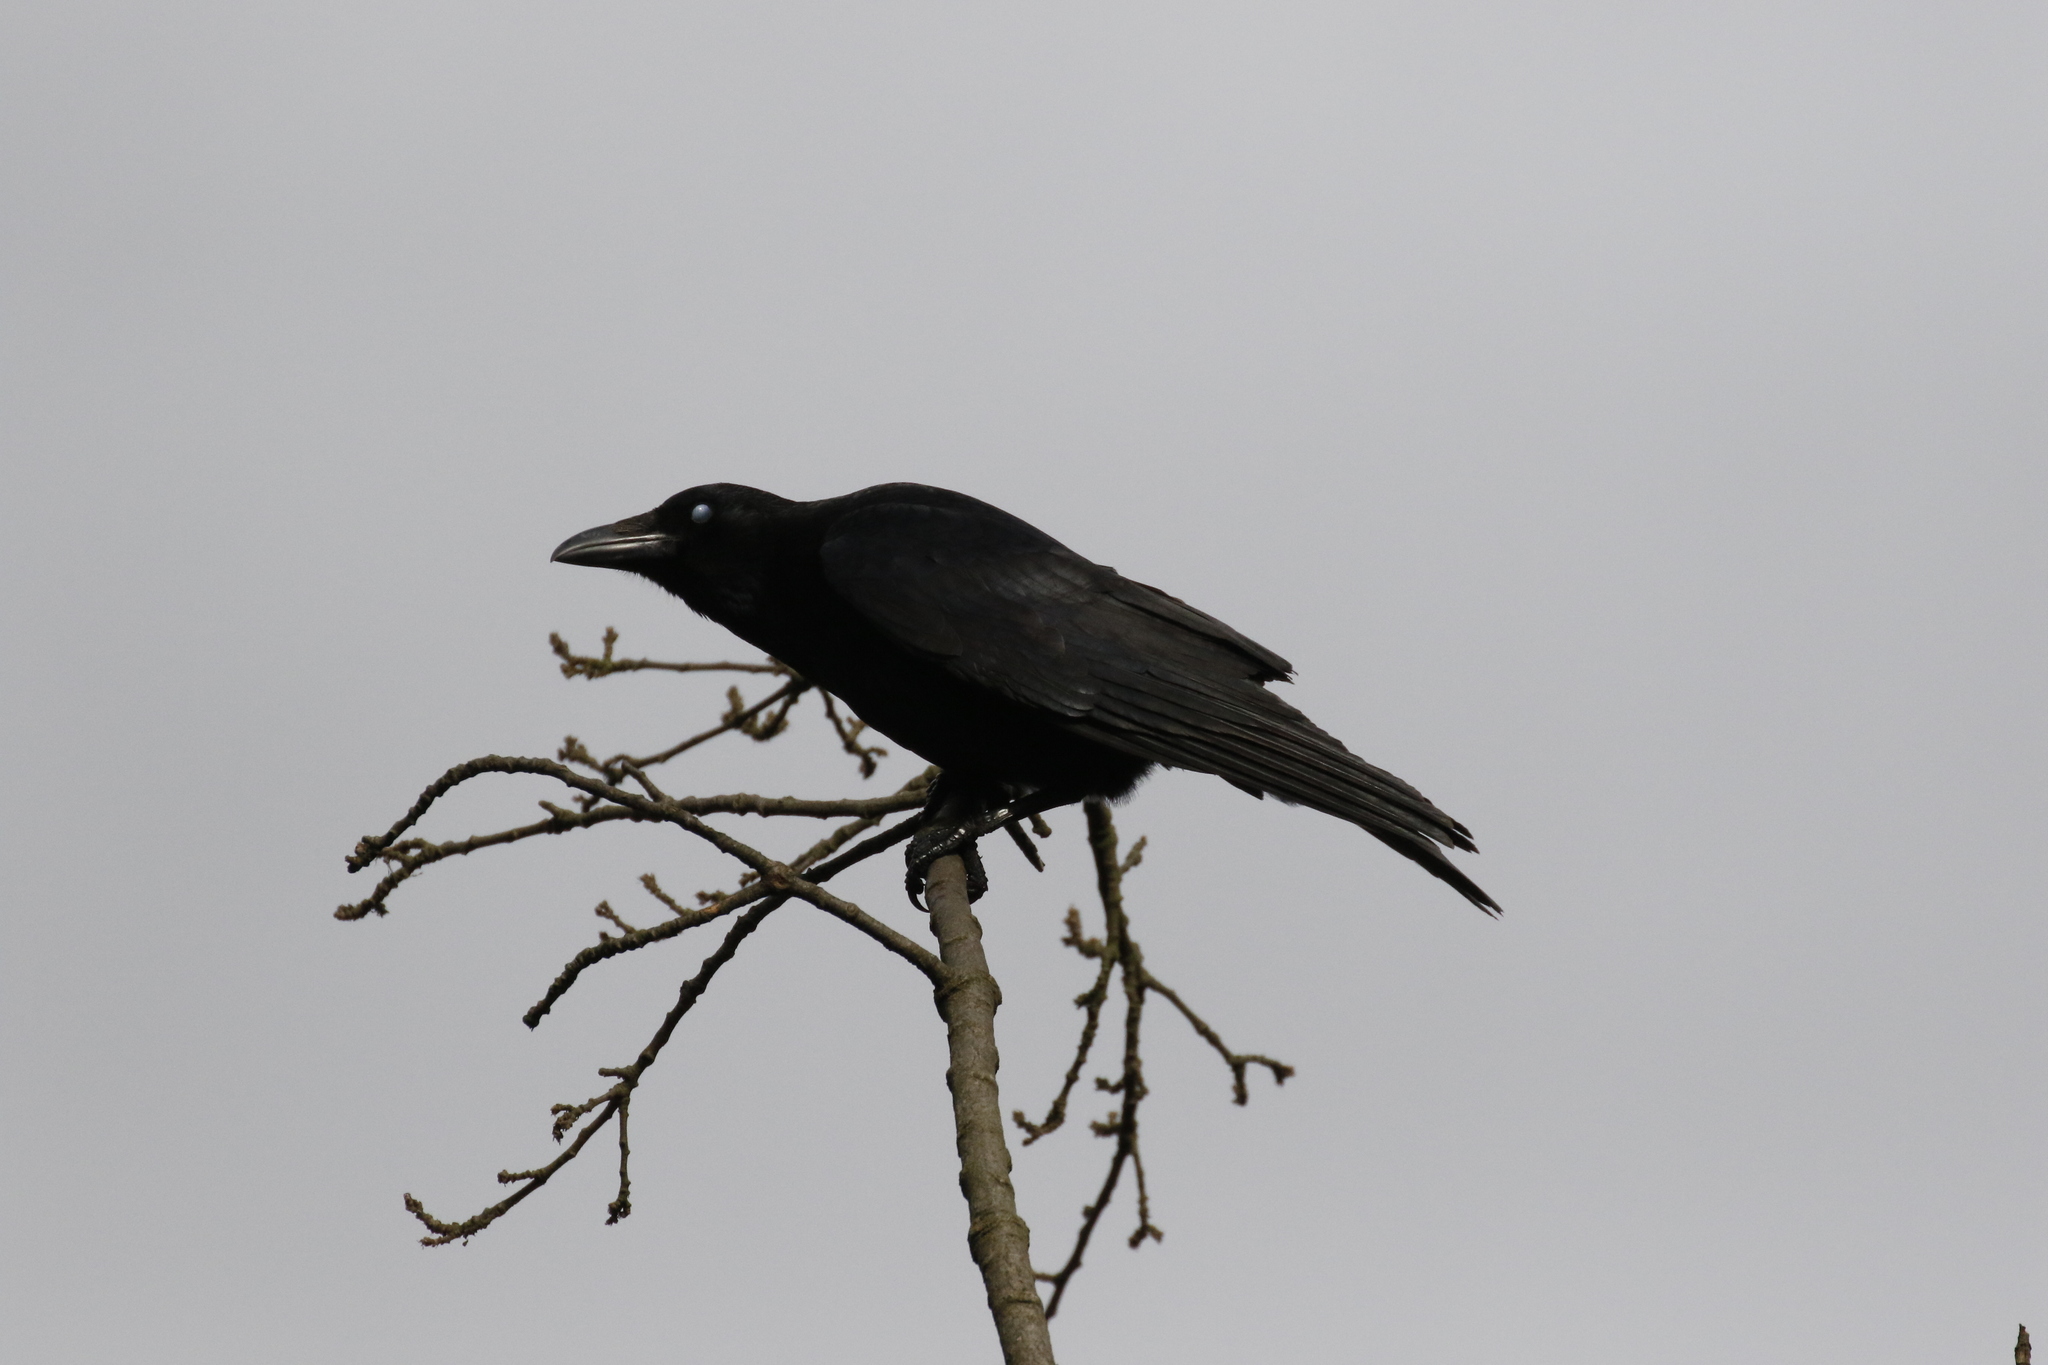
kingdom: Animalia
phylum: Chordata
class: Aves
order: Passeriformes
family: Corvidae
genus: Corvus
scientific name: Corvus corone
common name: Carrion crow
